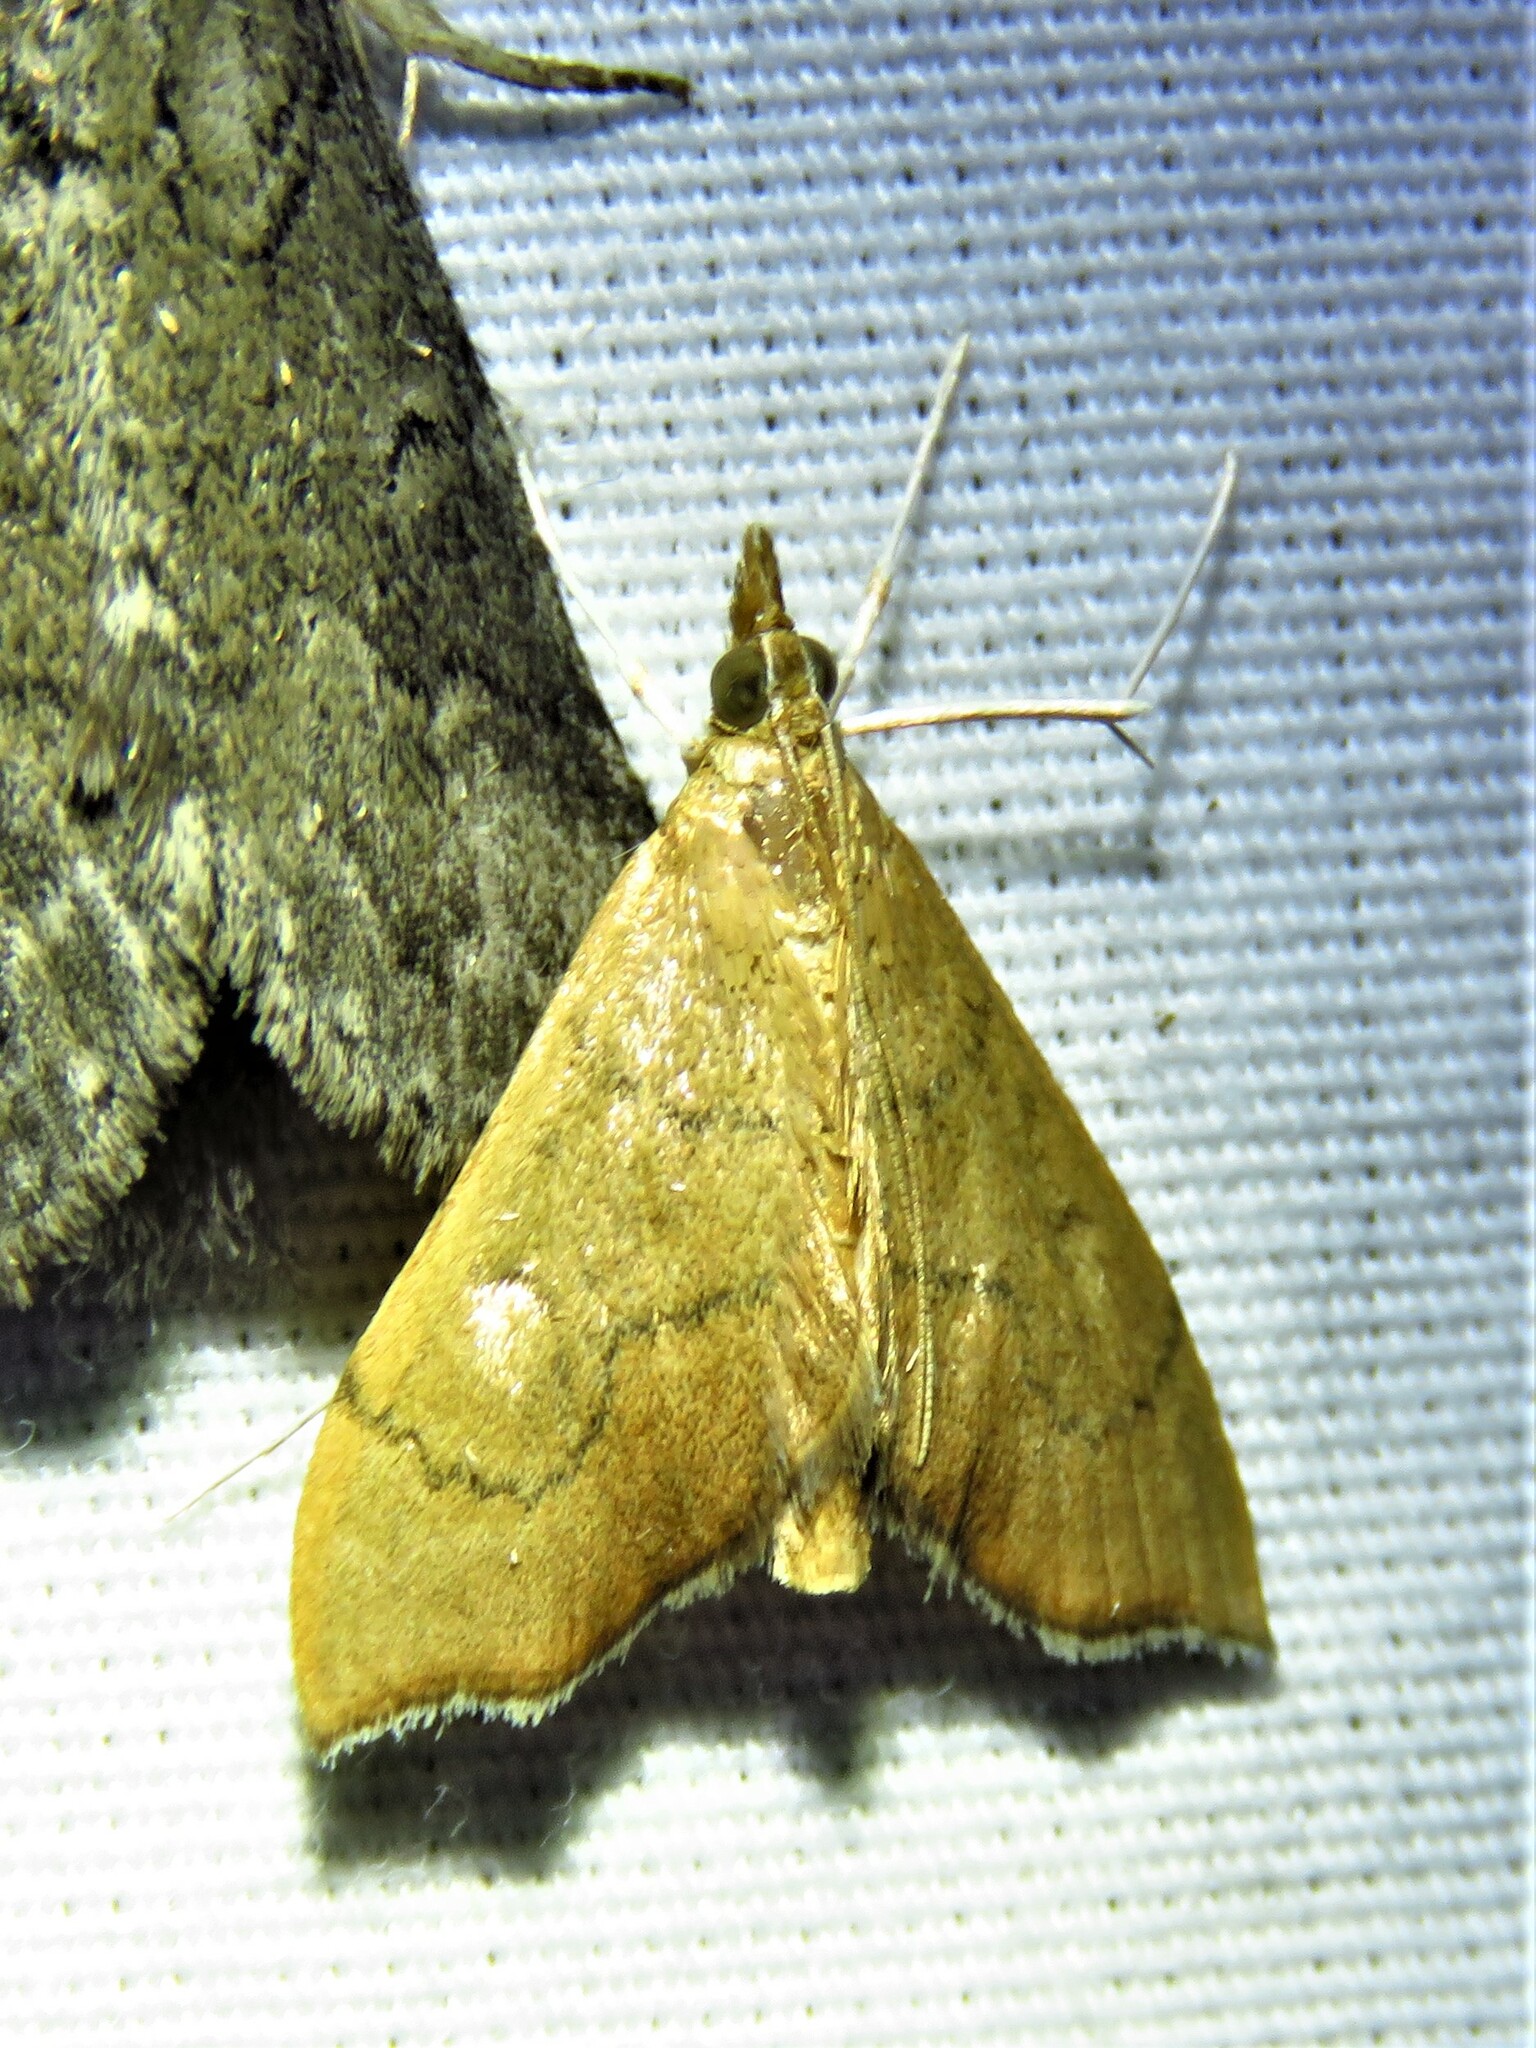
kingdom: Animalia
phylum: Arthropoda
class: Insecta
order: Lepidoptera
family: Crambidae
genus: Sericoplaga
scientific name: Sericoplaga externalis
